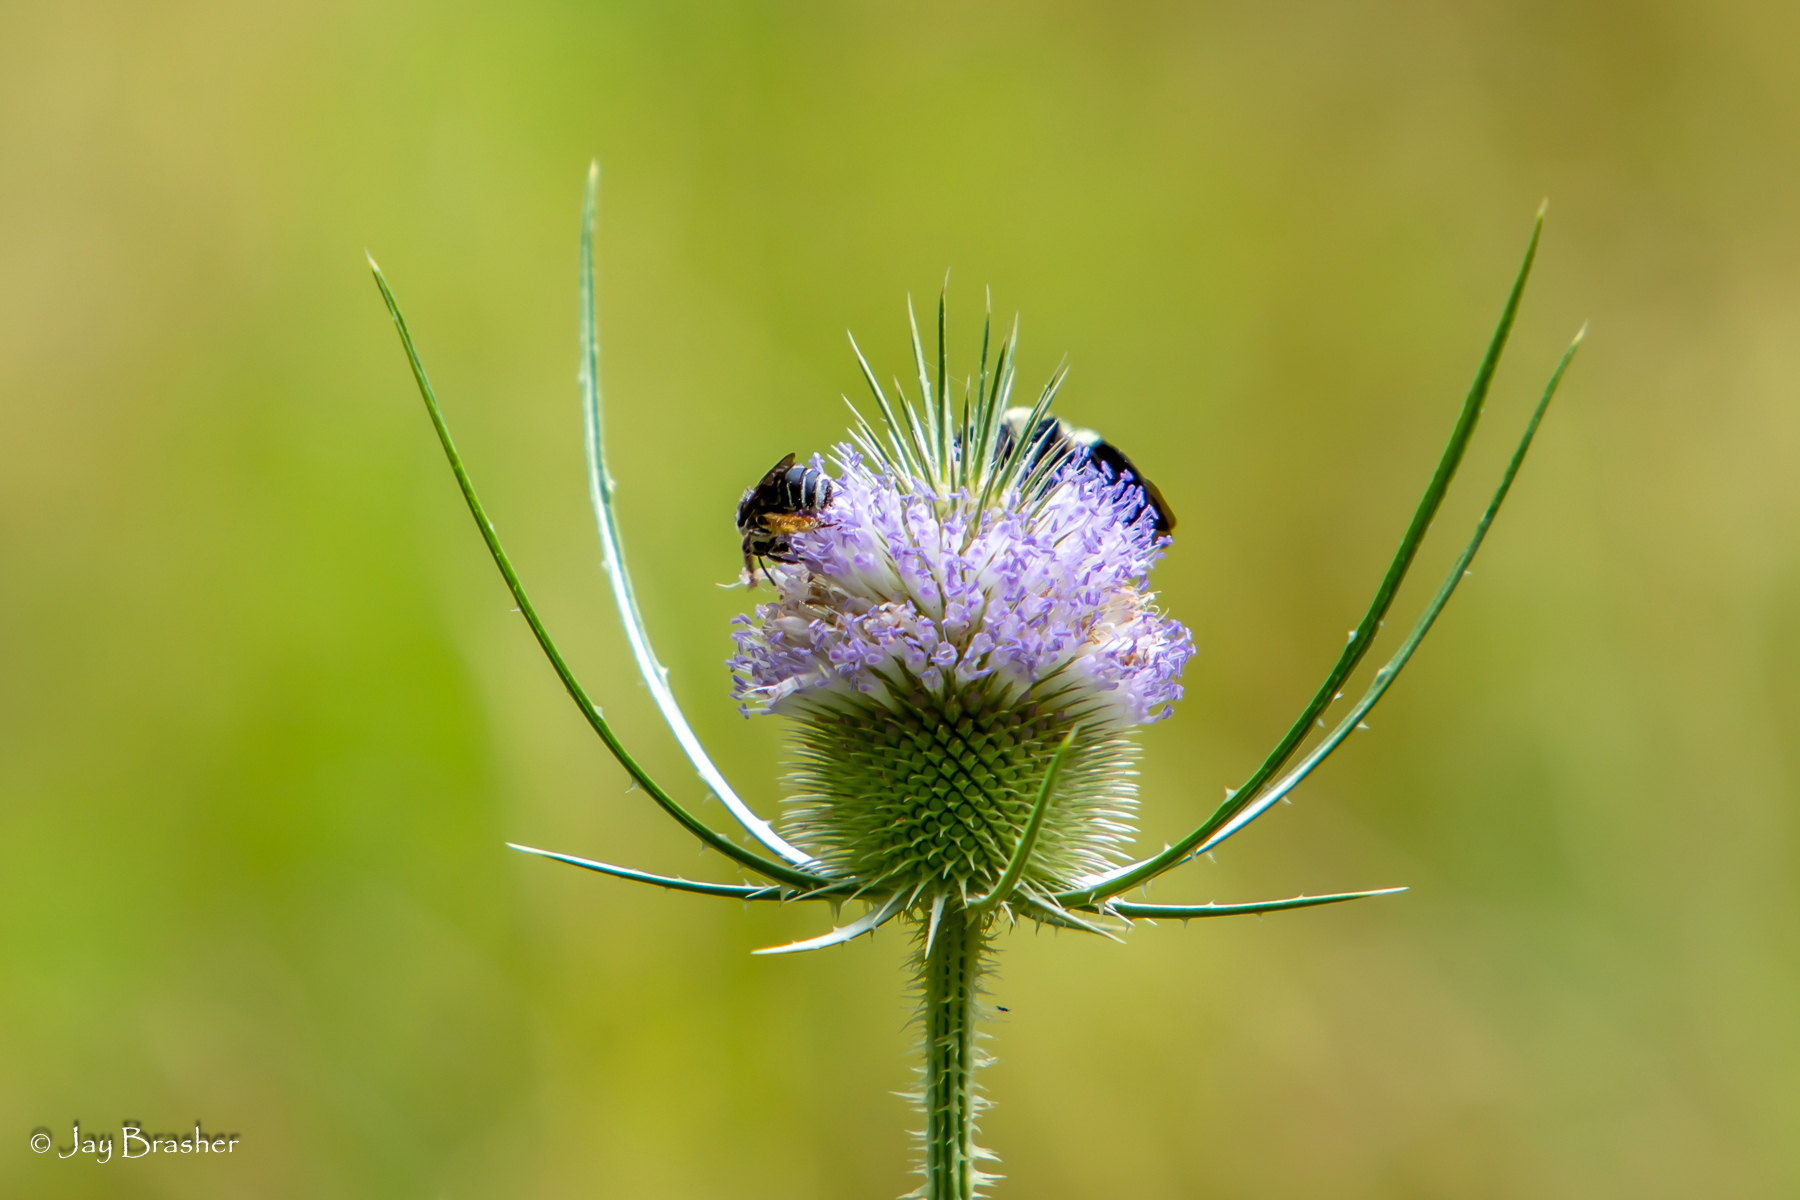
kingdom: Plantae
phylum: Tracheophyta
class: Magnoliopsida
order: Dipsacales
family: Caprifoliaceae
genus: Dipsacus
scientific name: Dipsacus fullonum
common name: Teasel
